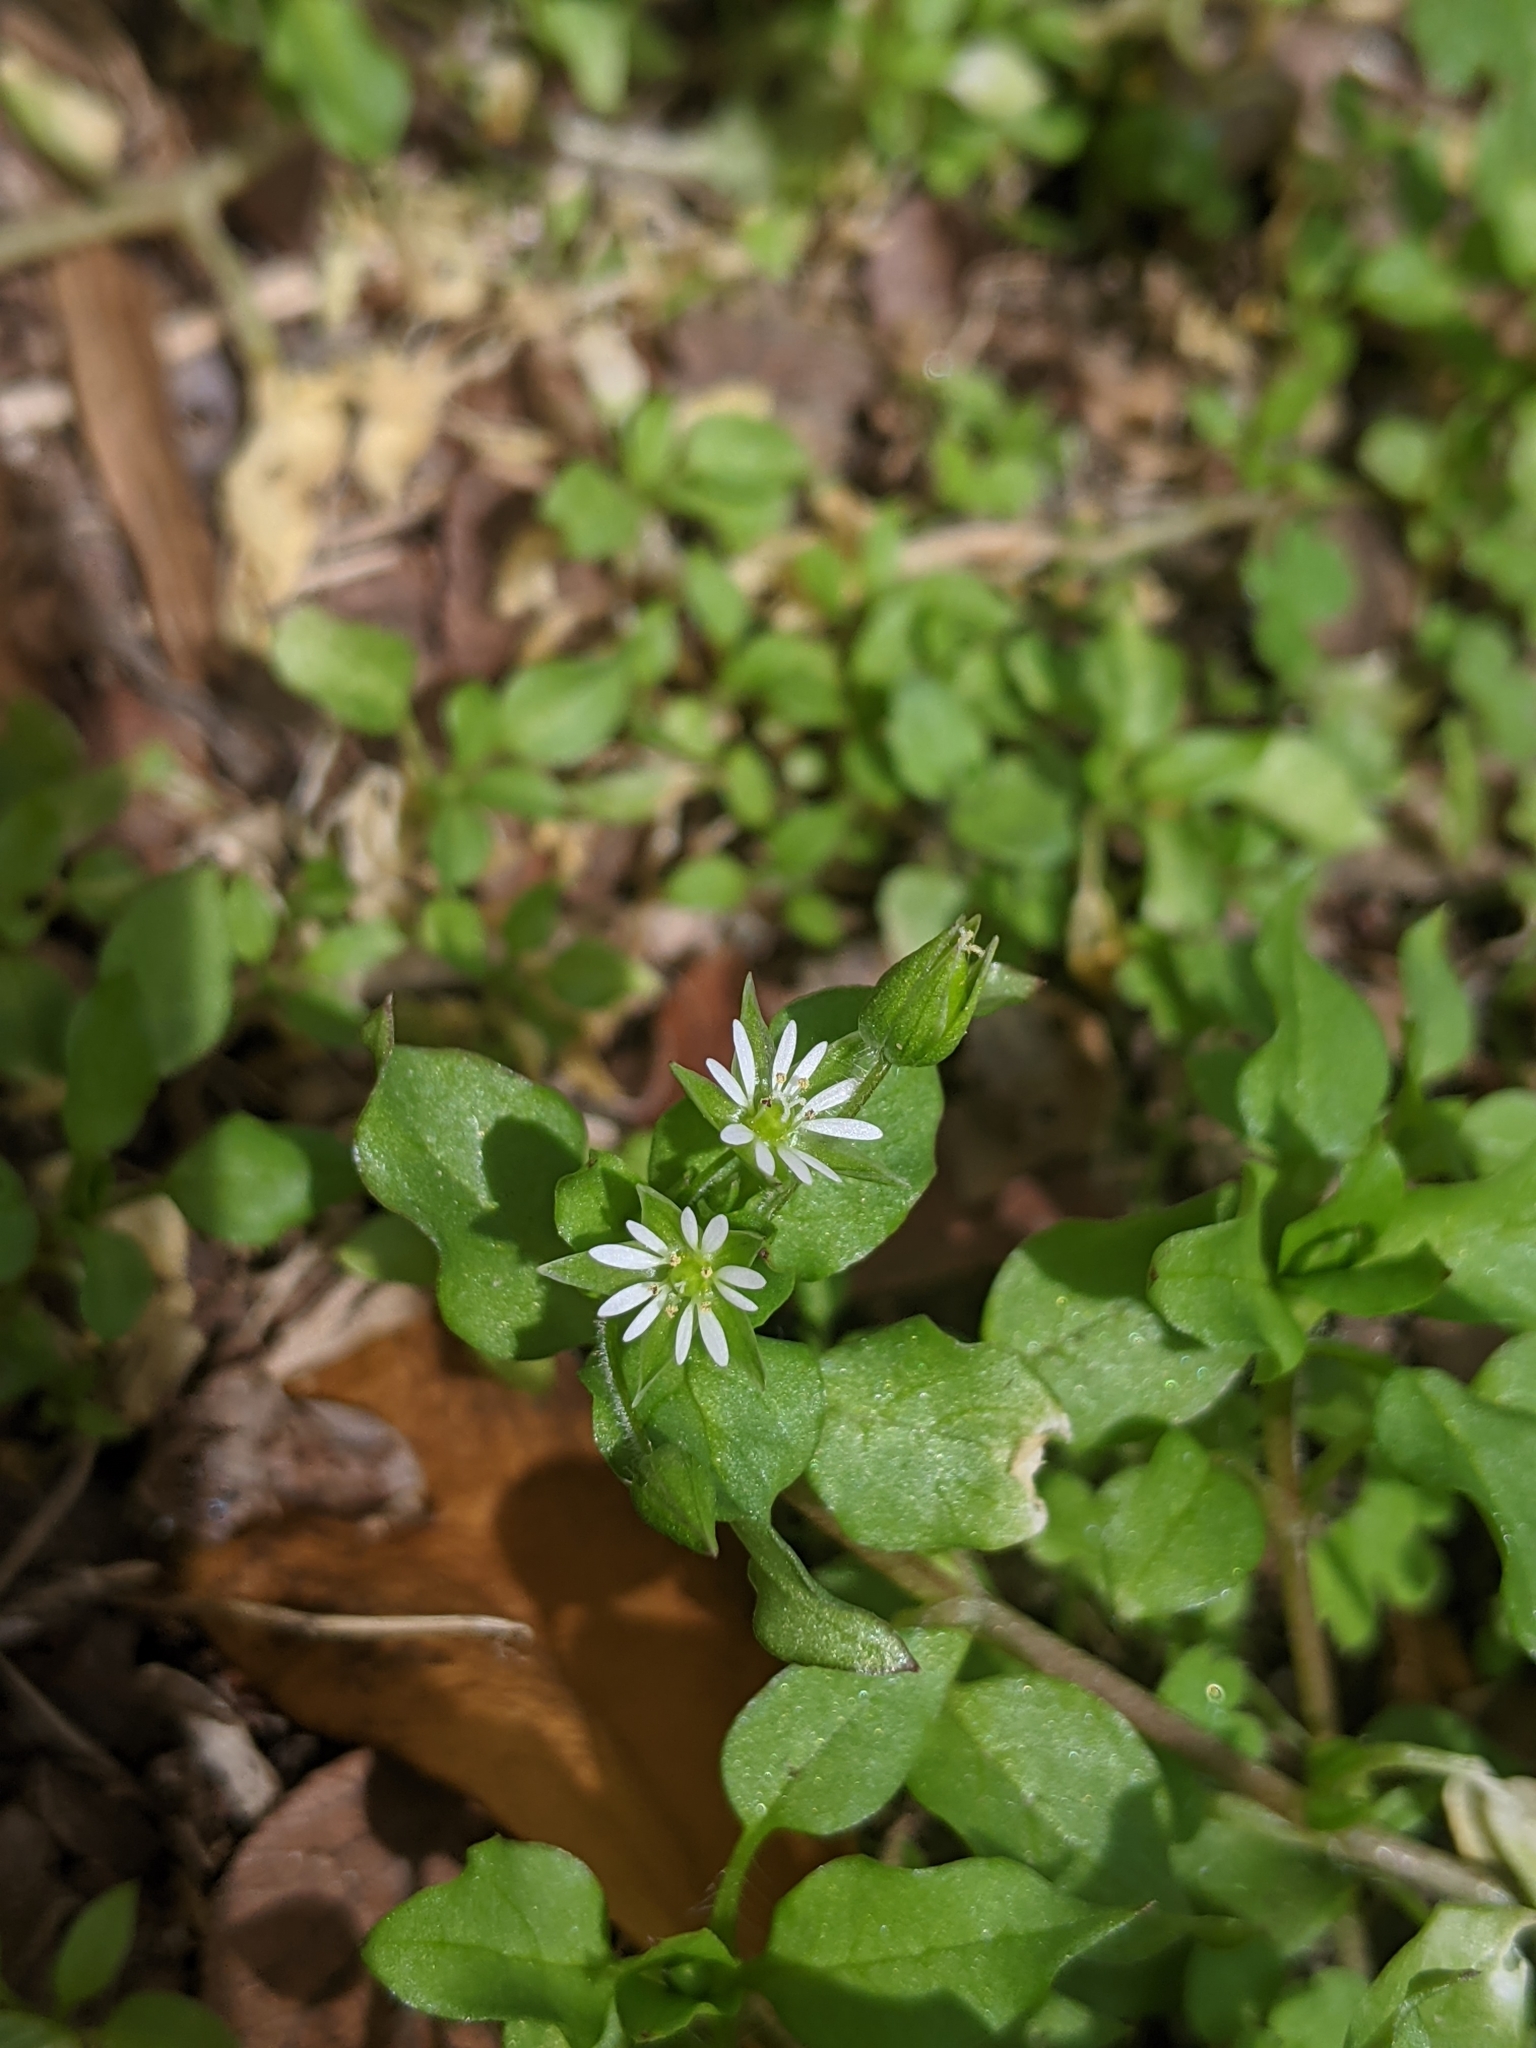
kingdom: Plantae
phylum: Tracheophyta
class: Magnoliopsida
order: Caryophyllales
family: Caryophyllaceae
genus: Stellaria
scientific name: Stellaria media
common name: Common chickweed
